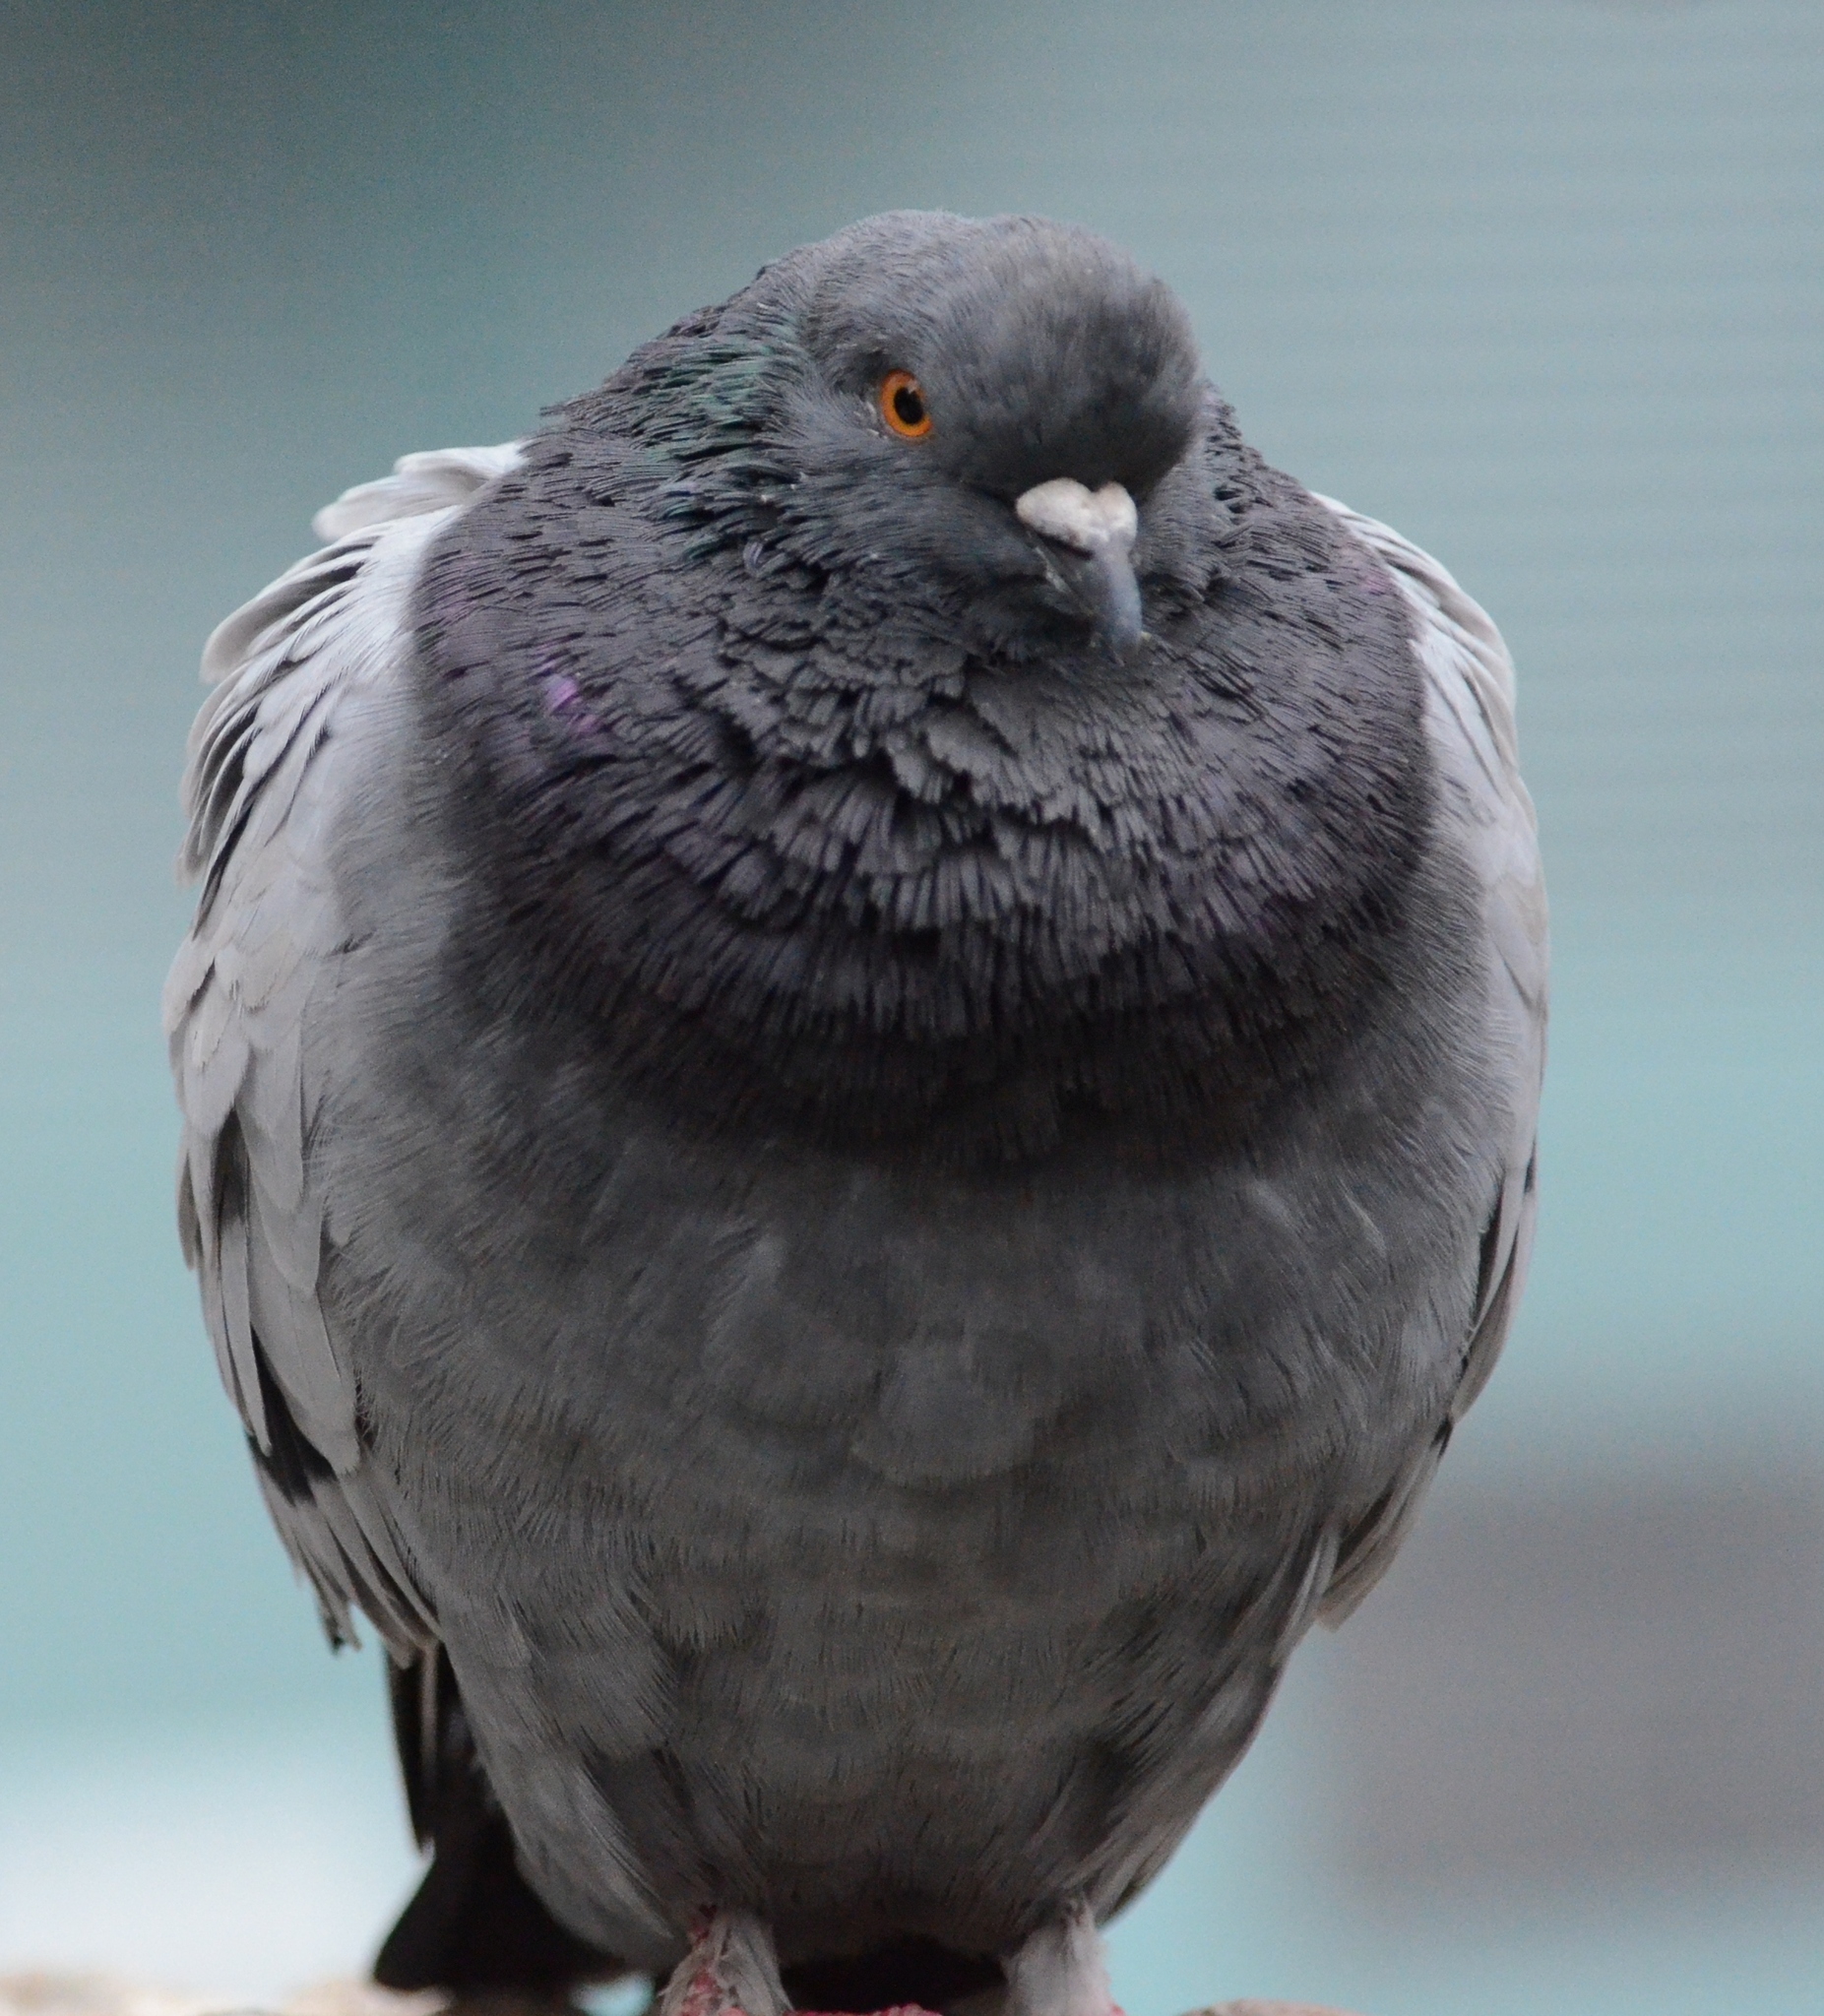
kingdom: Animalia
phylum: Chordata
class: Aves
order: Columbiformes
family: Columbidae
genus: Columba
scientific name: Columba livia
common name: Rock pigeon
